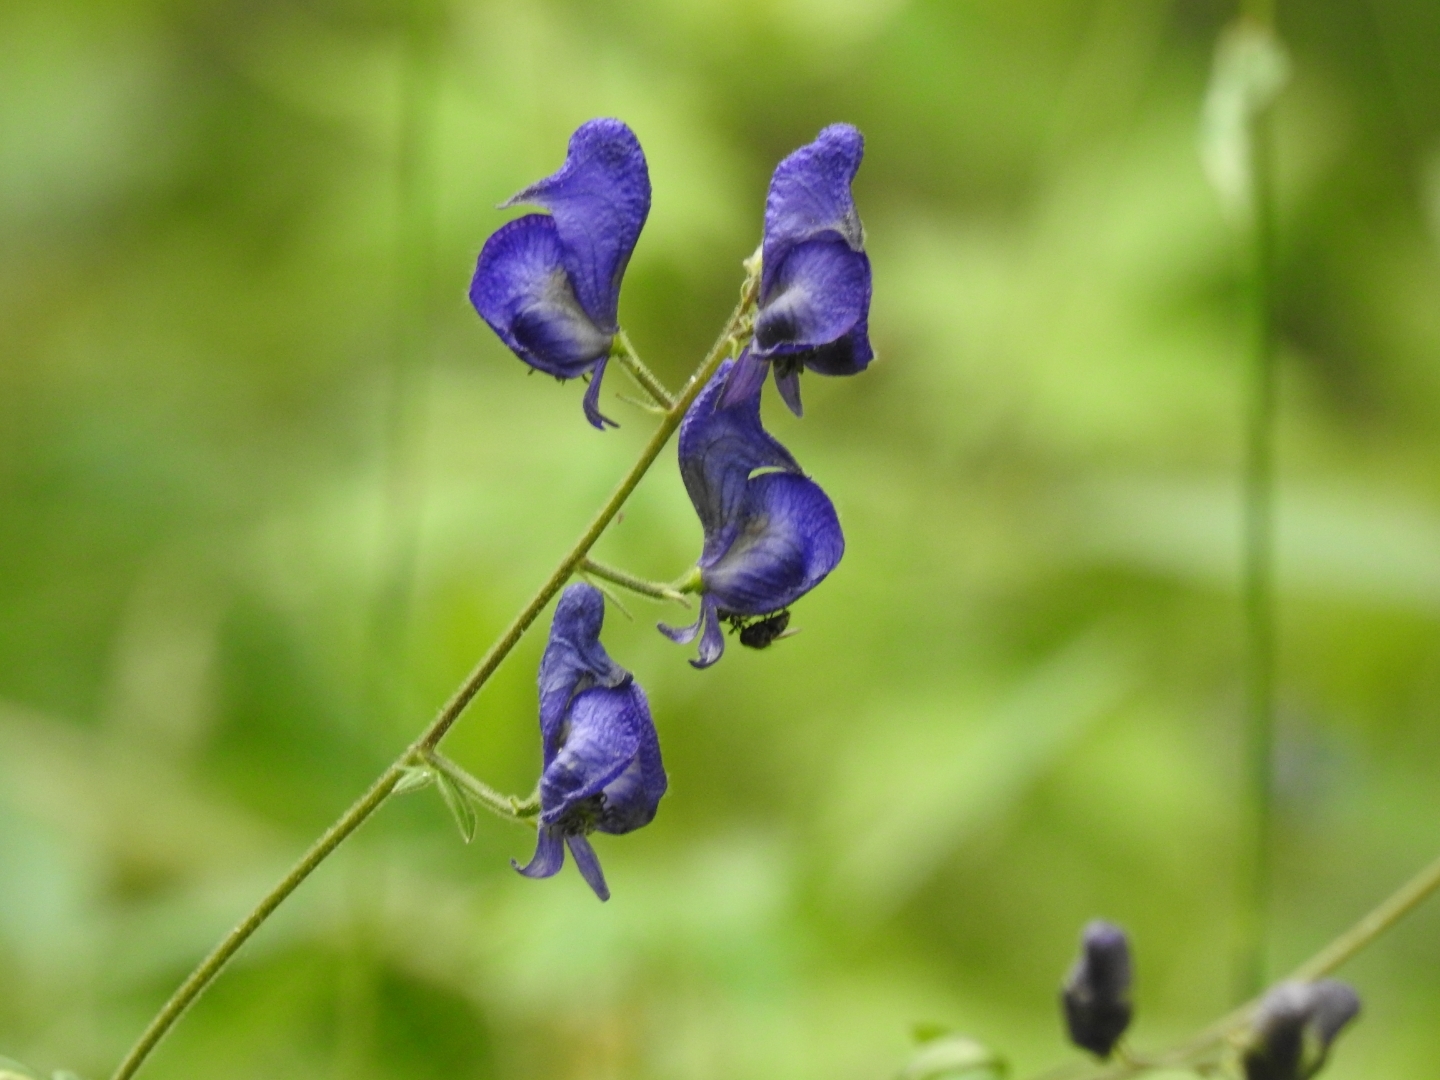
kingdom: Plantae
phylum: Tracheophyta
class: Magnoliopsida
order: Ranunculales
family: Ranunculaceae
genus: Aconitum
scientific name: Aconitum columbianum
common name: Columbia aconite
